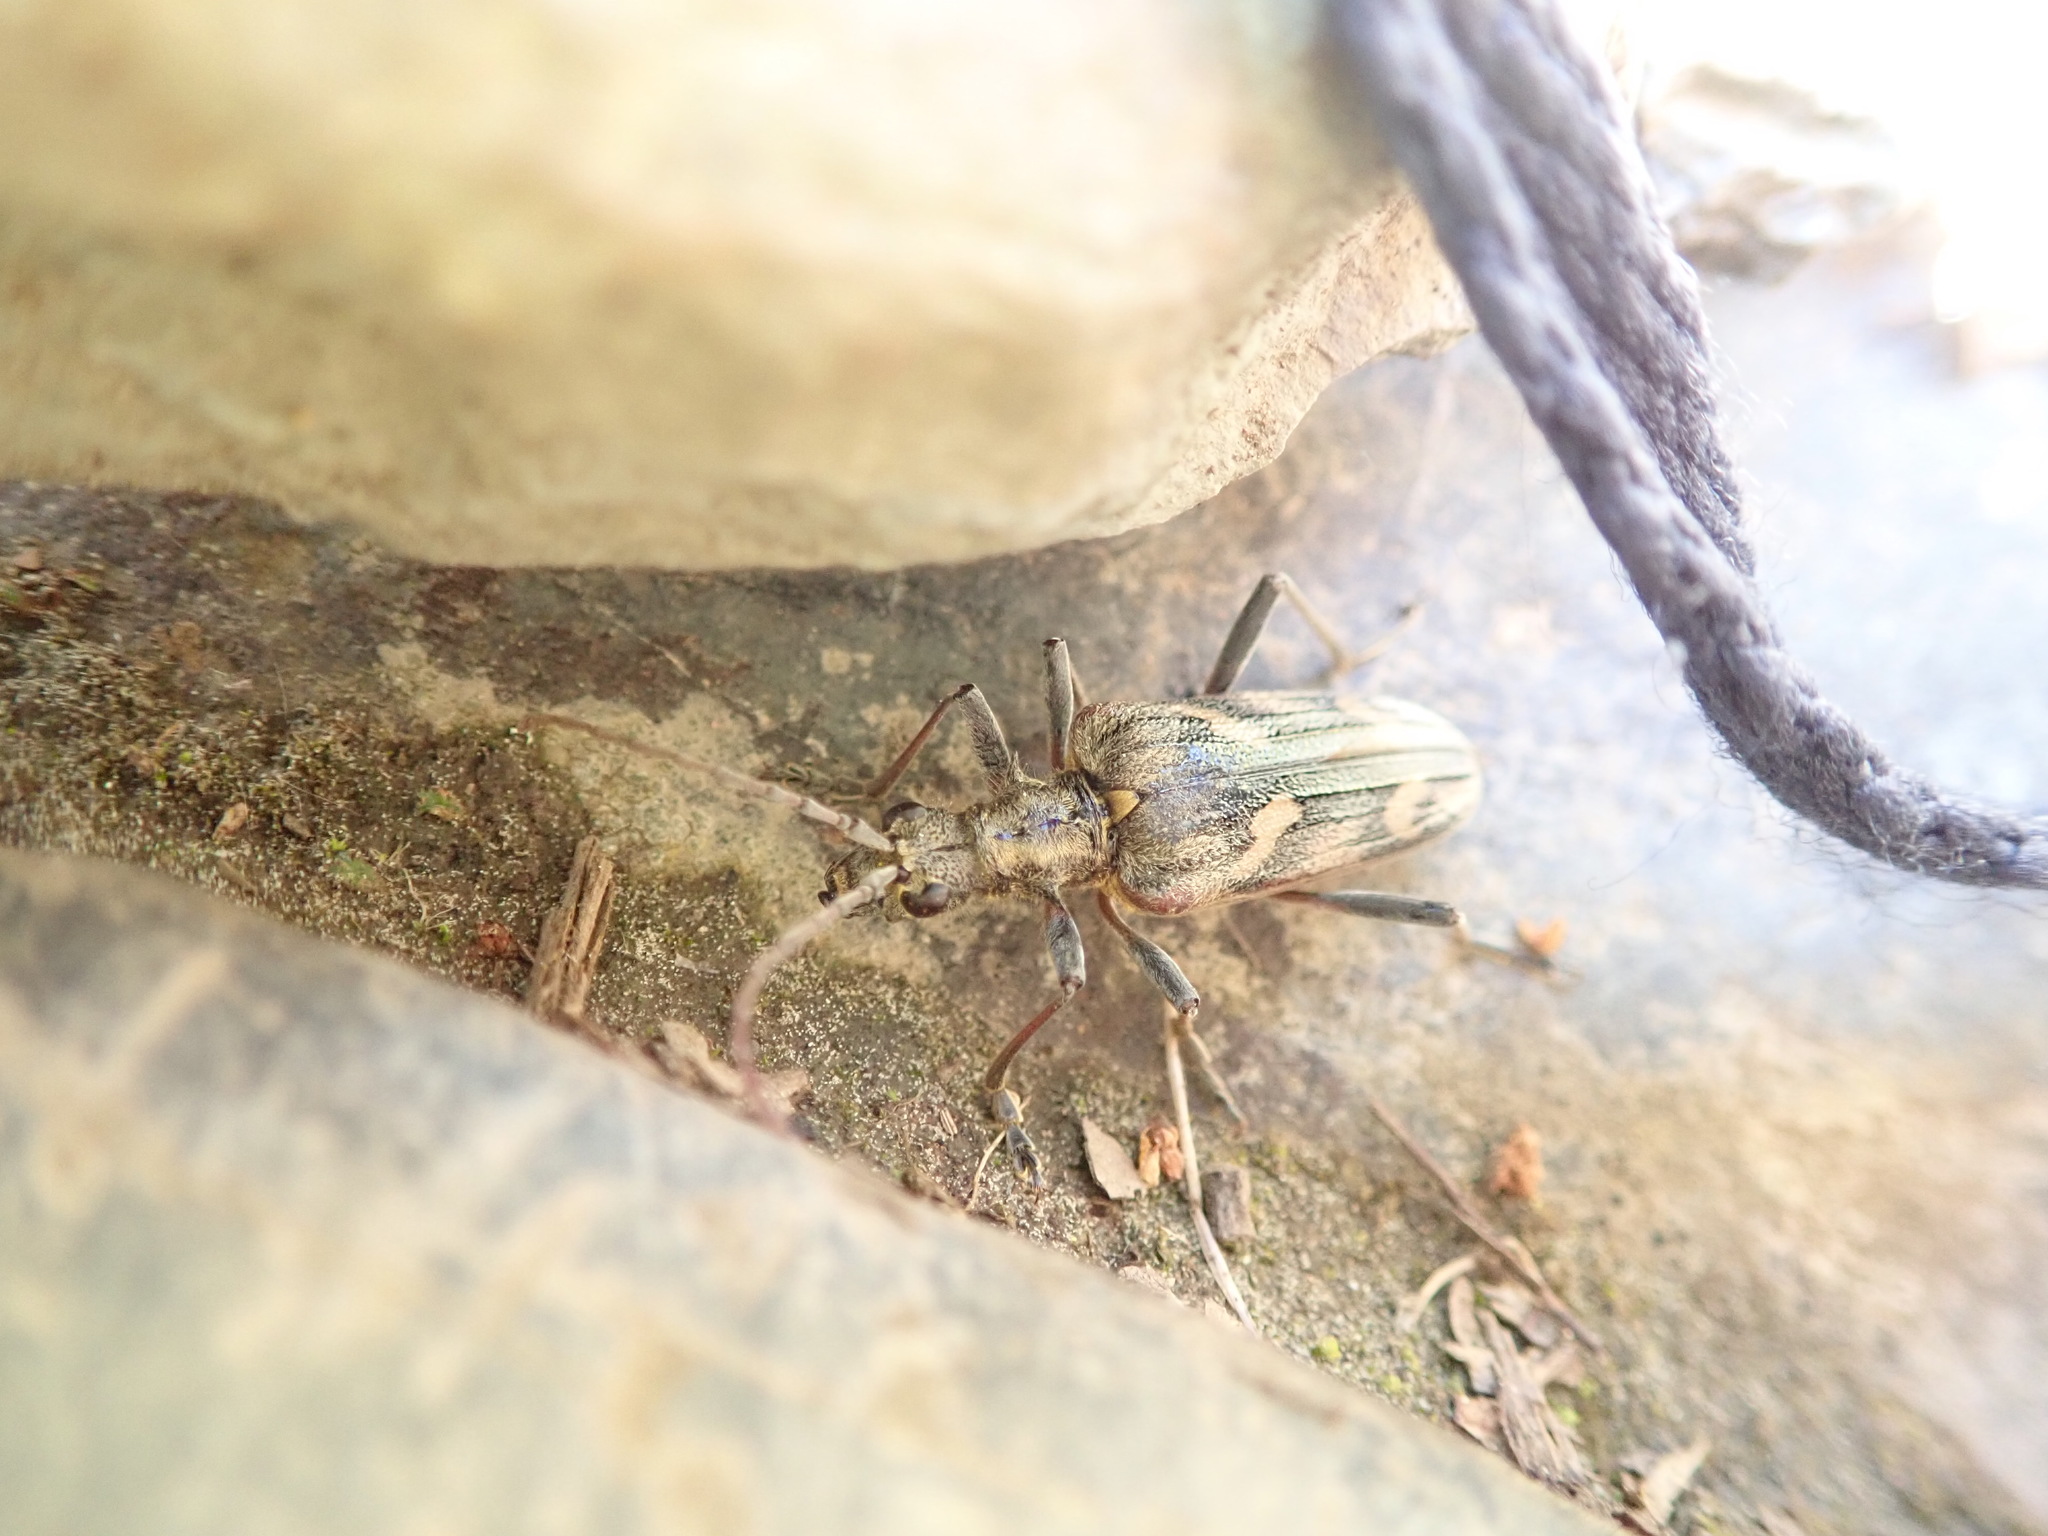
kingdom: Animalia
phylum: Arthropoda
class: Insecta
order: Coleoptera
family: Cerambycidae
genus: Rhagium
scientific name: Rhagium bifasciatum
